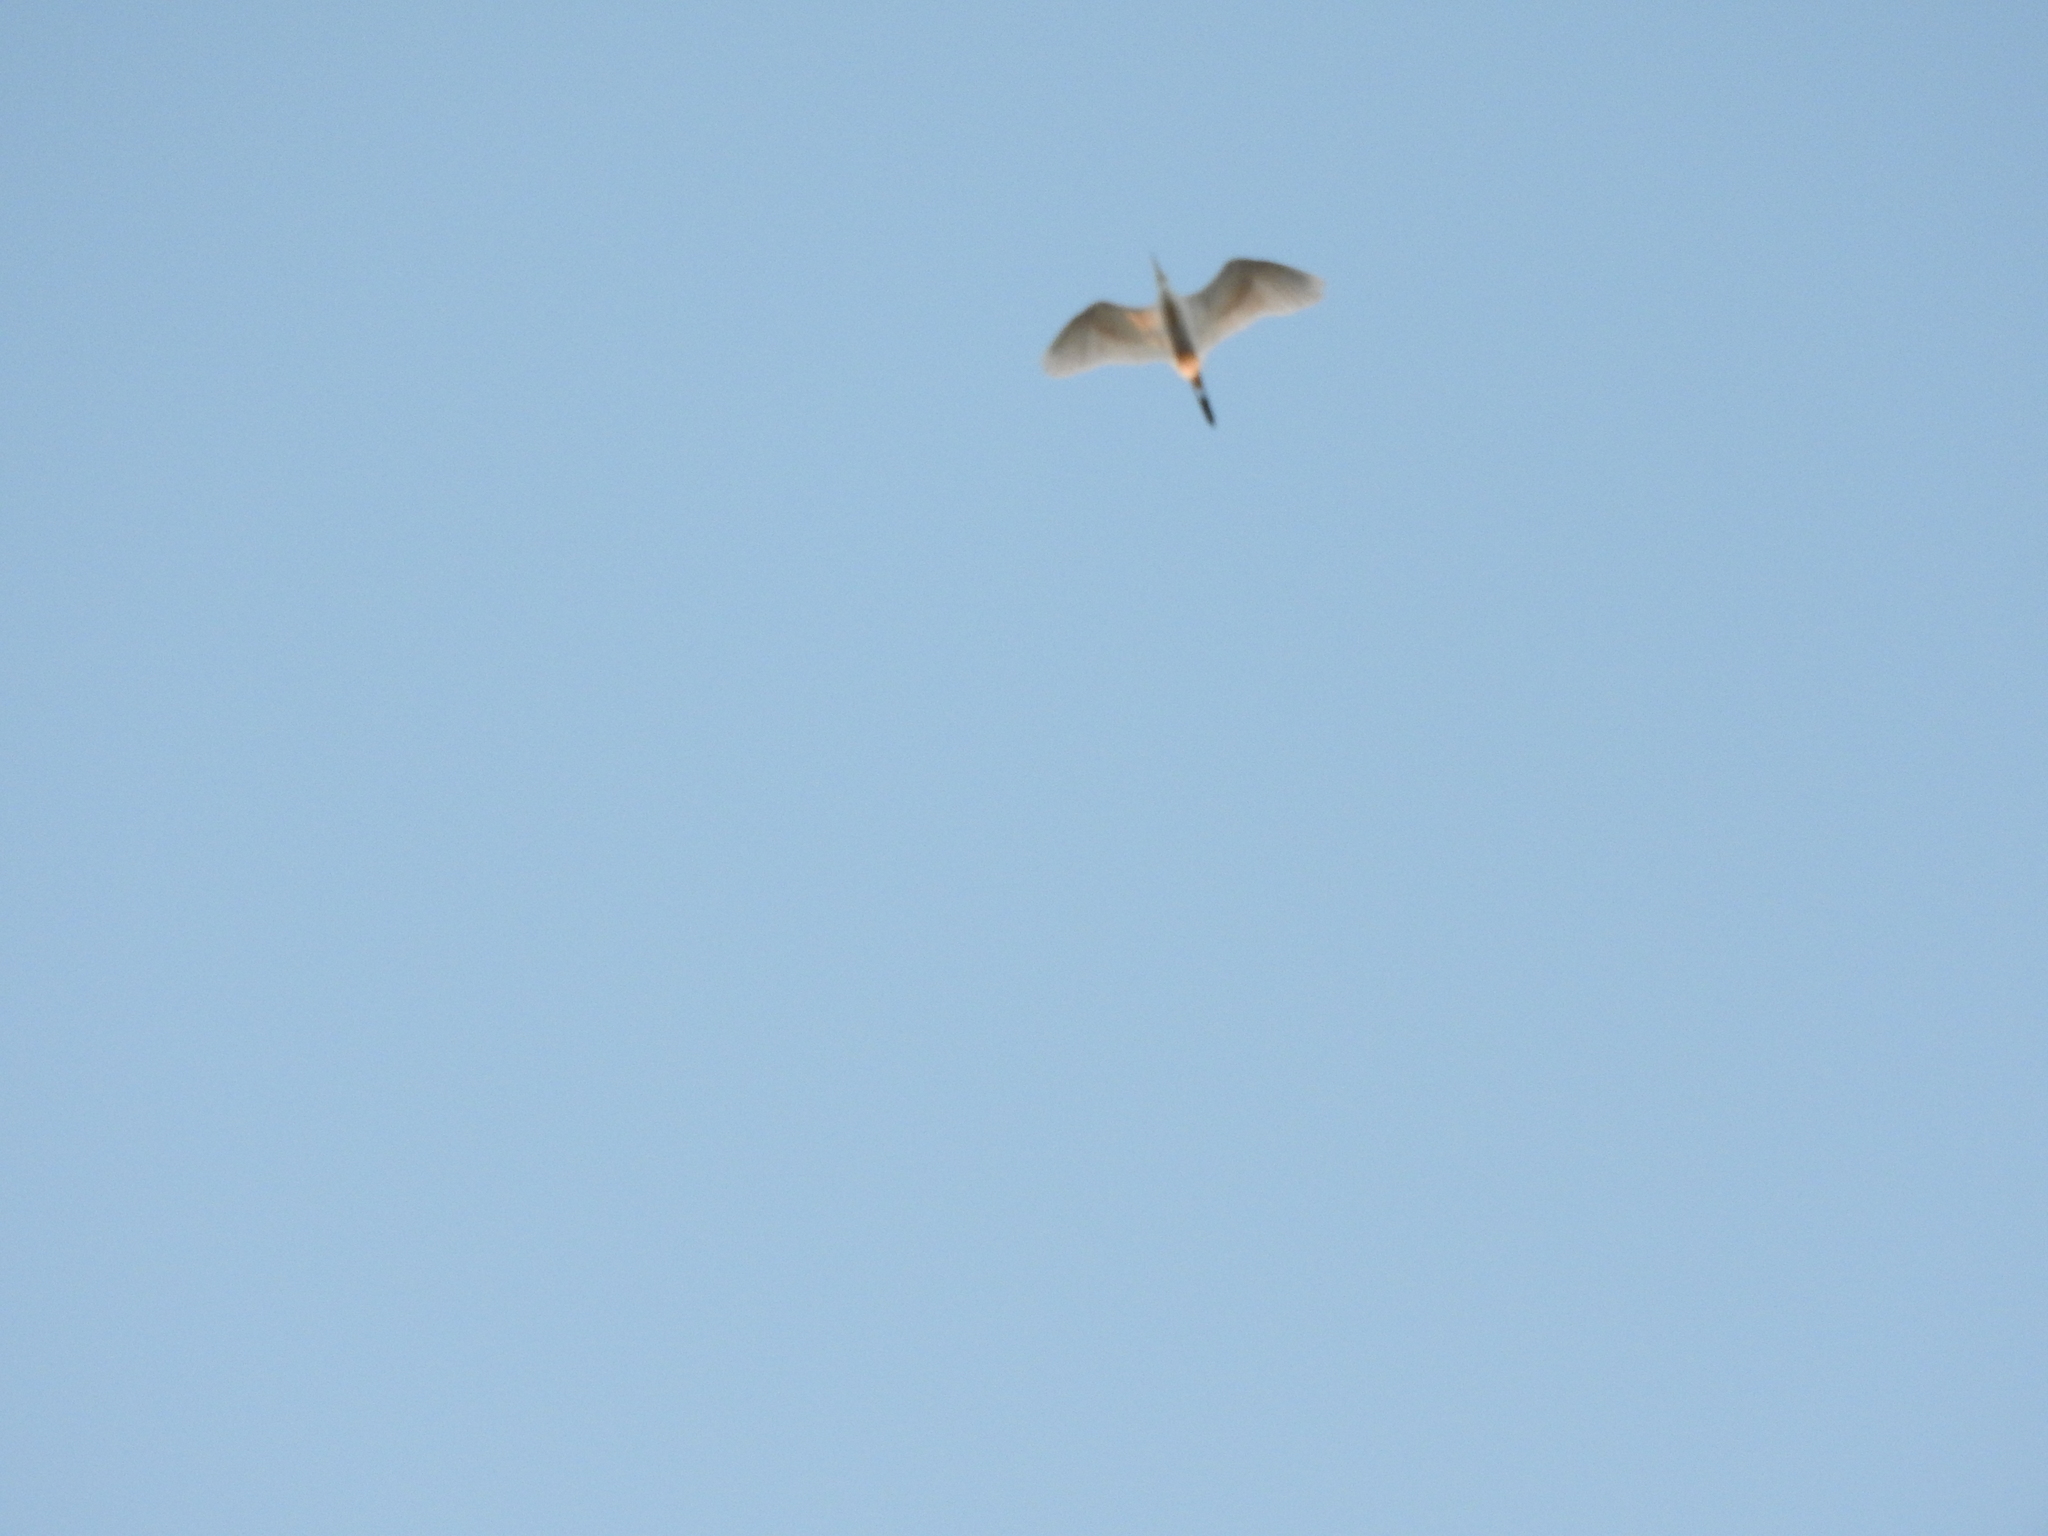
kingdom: Animalia
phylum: Chordata
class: Aves
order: Pelecaniformes
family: Ardeidae
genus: Bubulcus
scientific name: Bubulcus ibis
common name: Cattle egret
